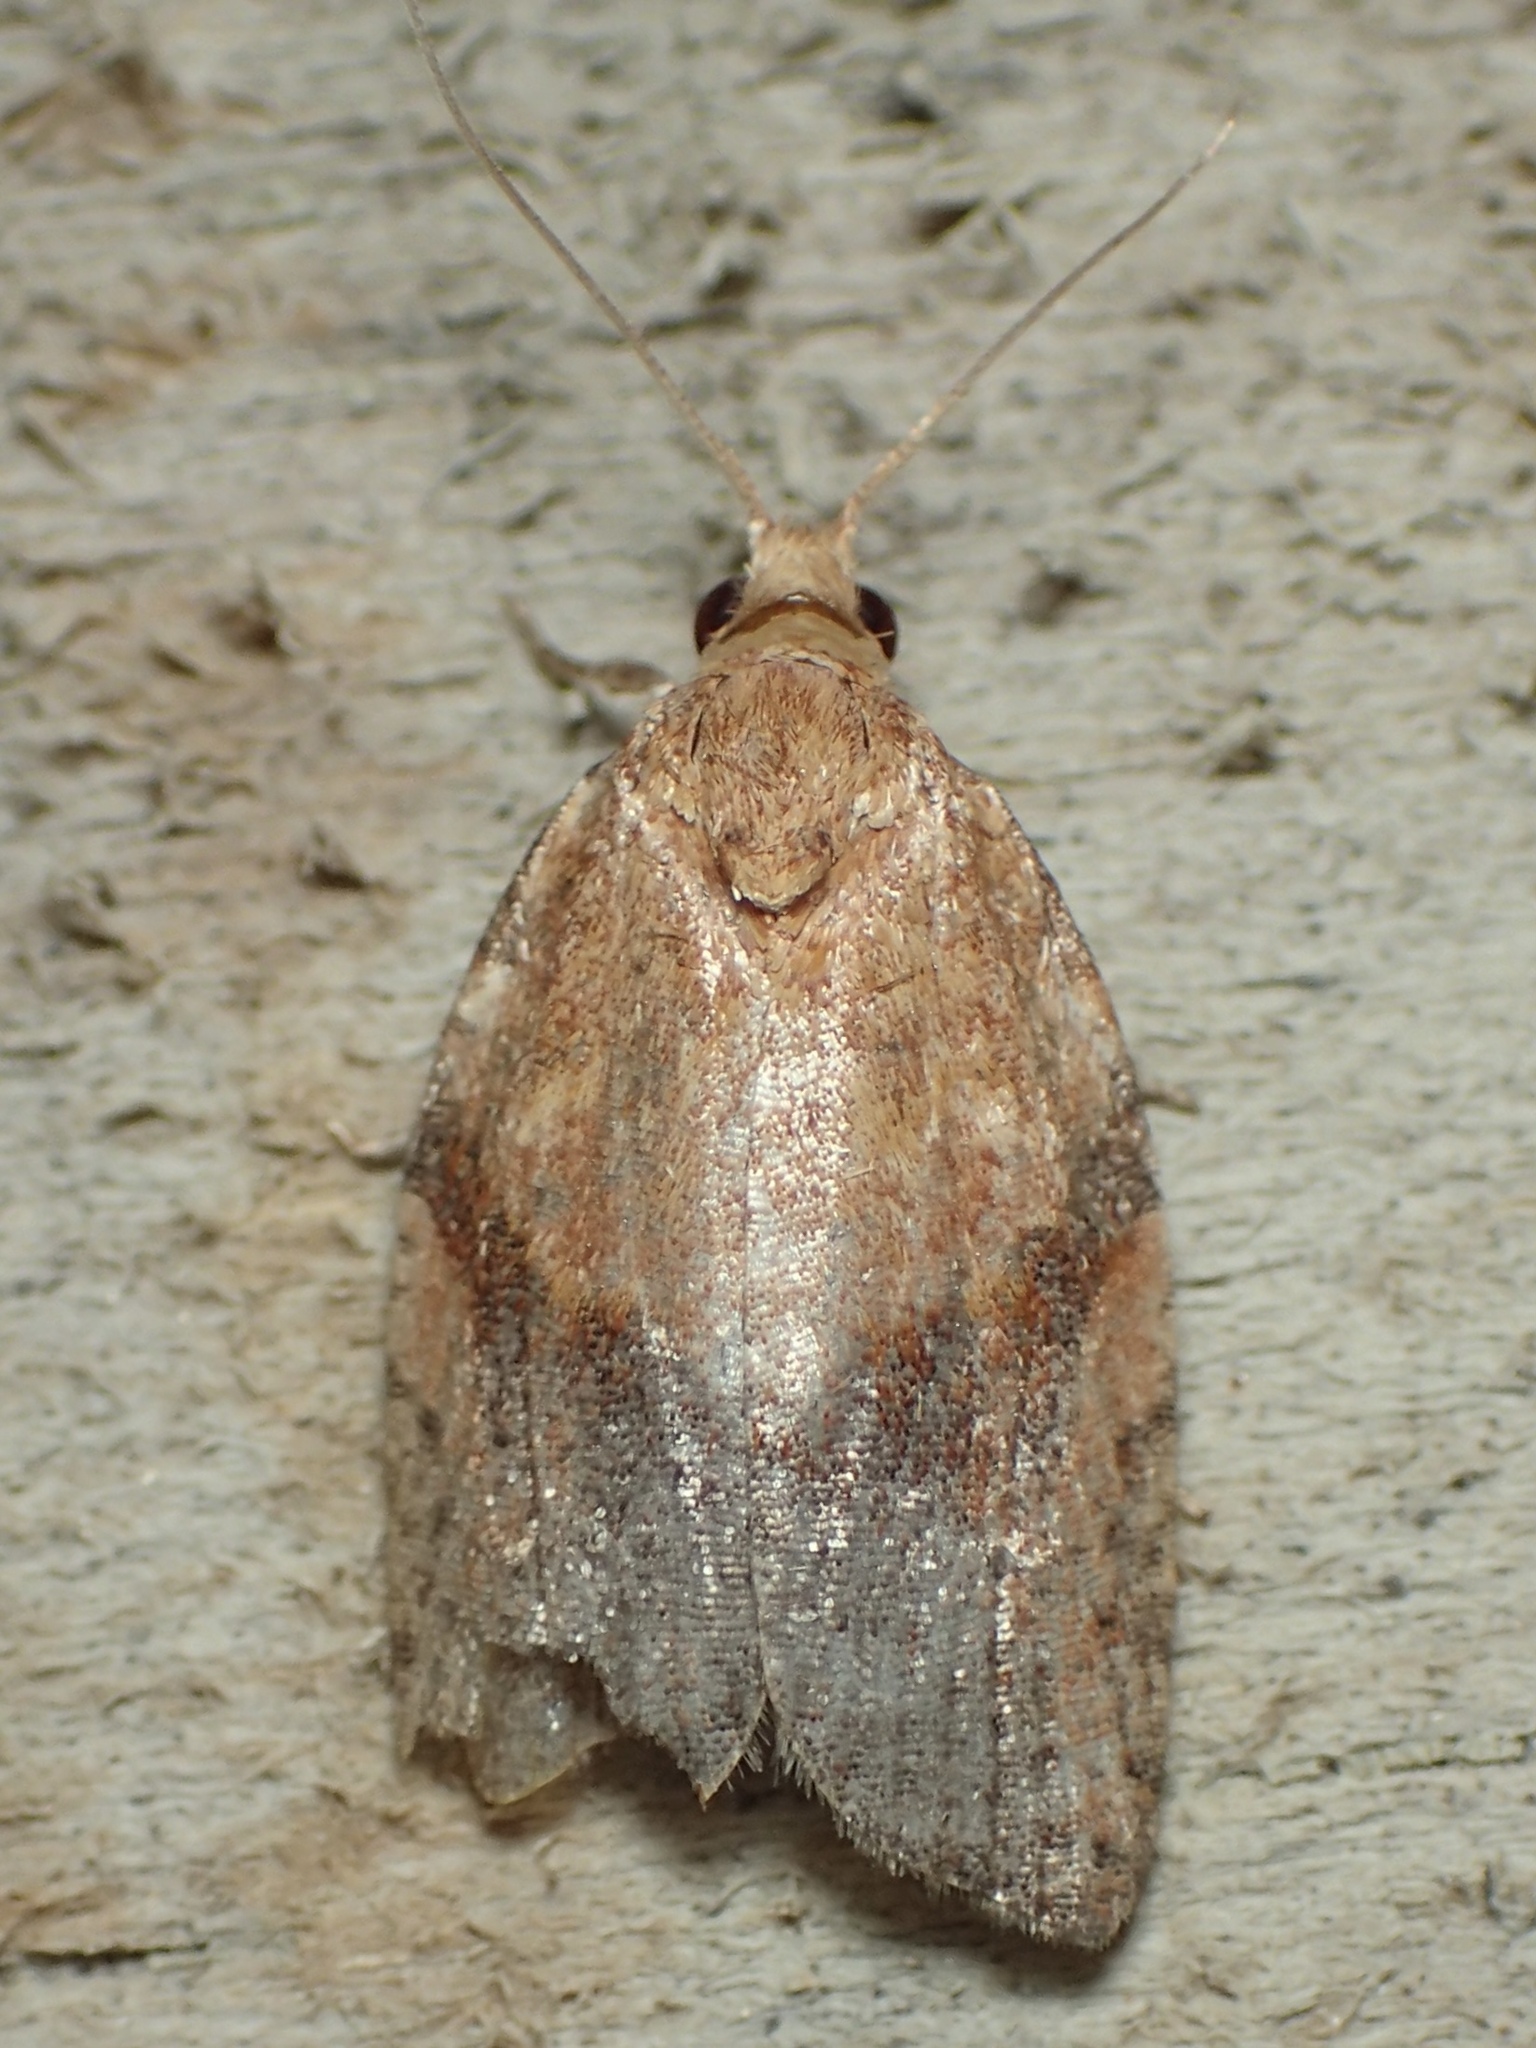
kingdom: Animalia
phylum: Arthropoda
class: Insecta
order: Lepidoptera
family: Tortricidae
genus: Epiphyas
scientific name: Epiphyas postvittana
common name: Light brown apple moth
